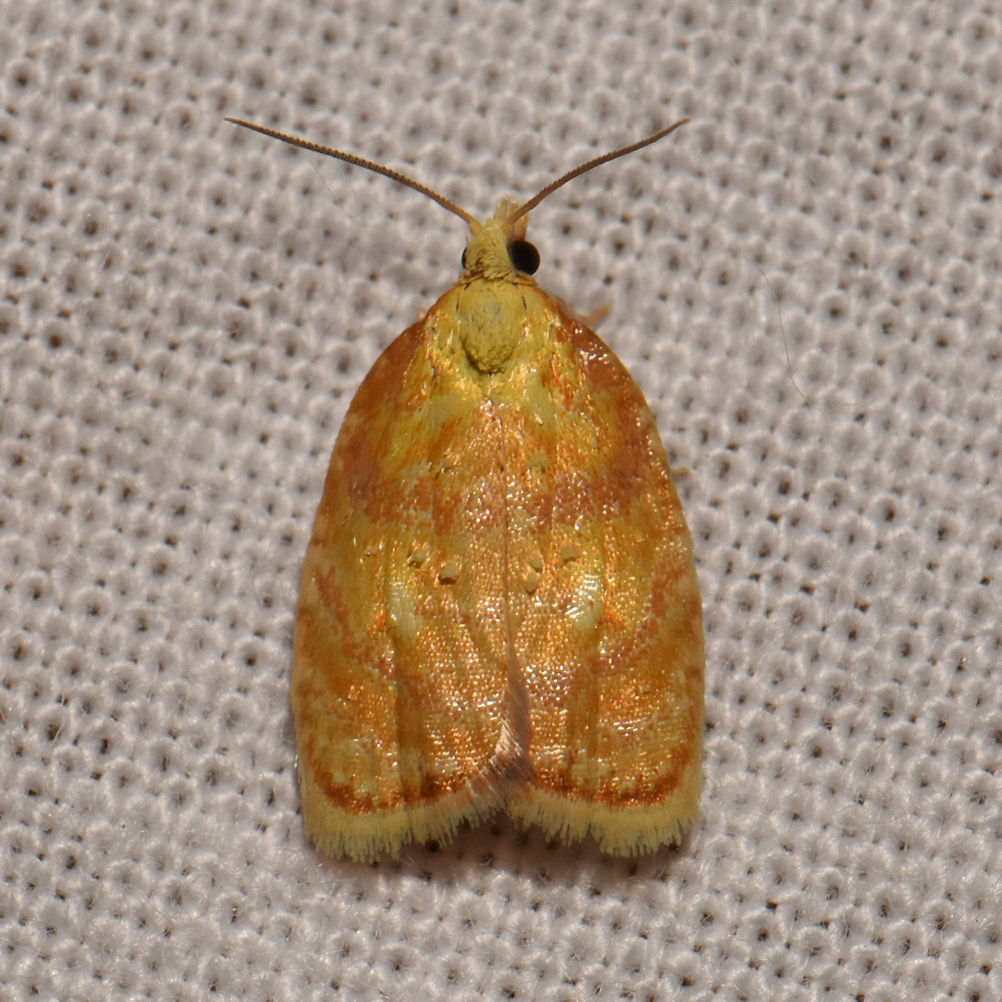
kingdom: Animalia
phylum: Arthropoda
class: Insecta
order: Lepidoptera
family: Tortricidae
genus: Acleris
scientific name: Acleris curvalana
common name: Blueberry leaftier moth
